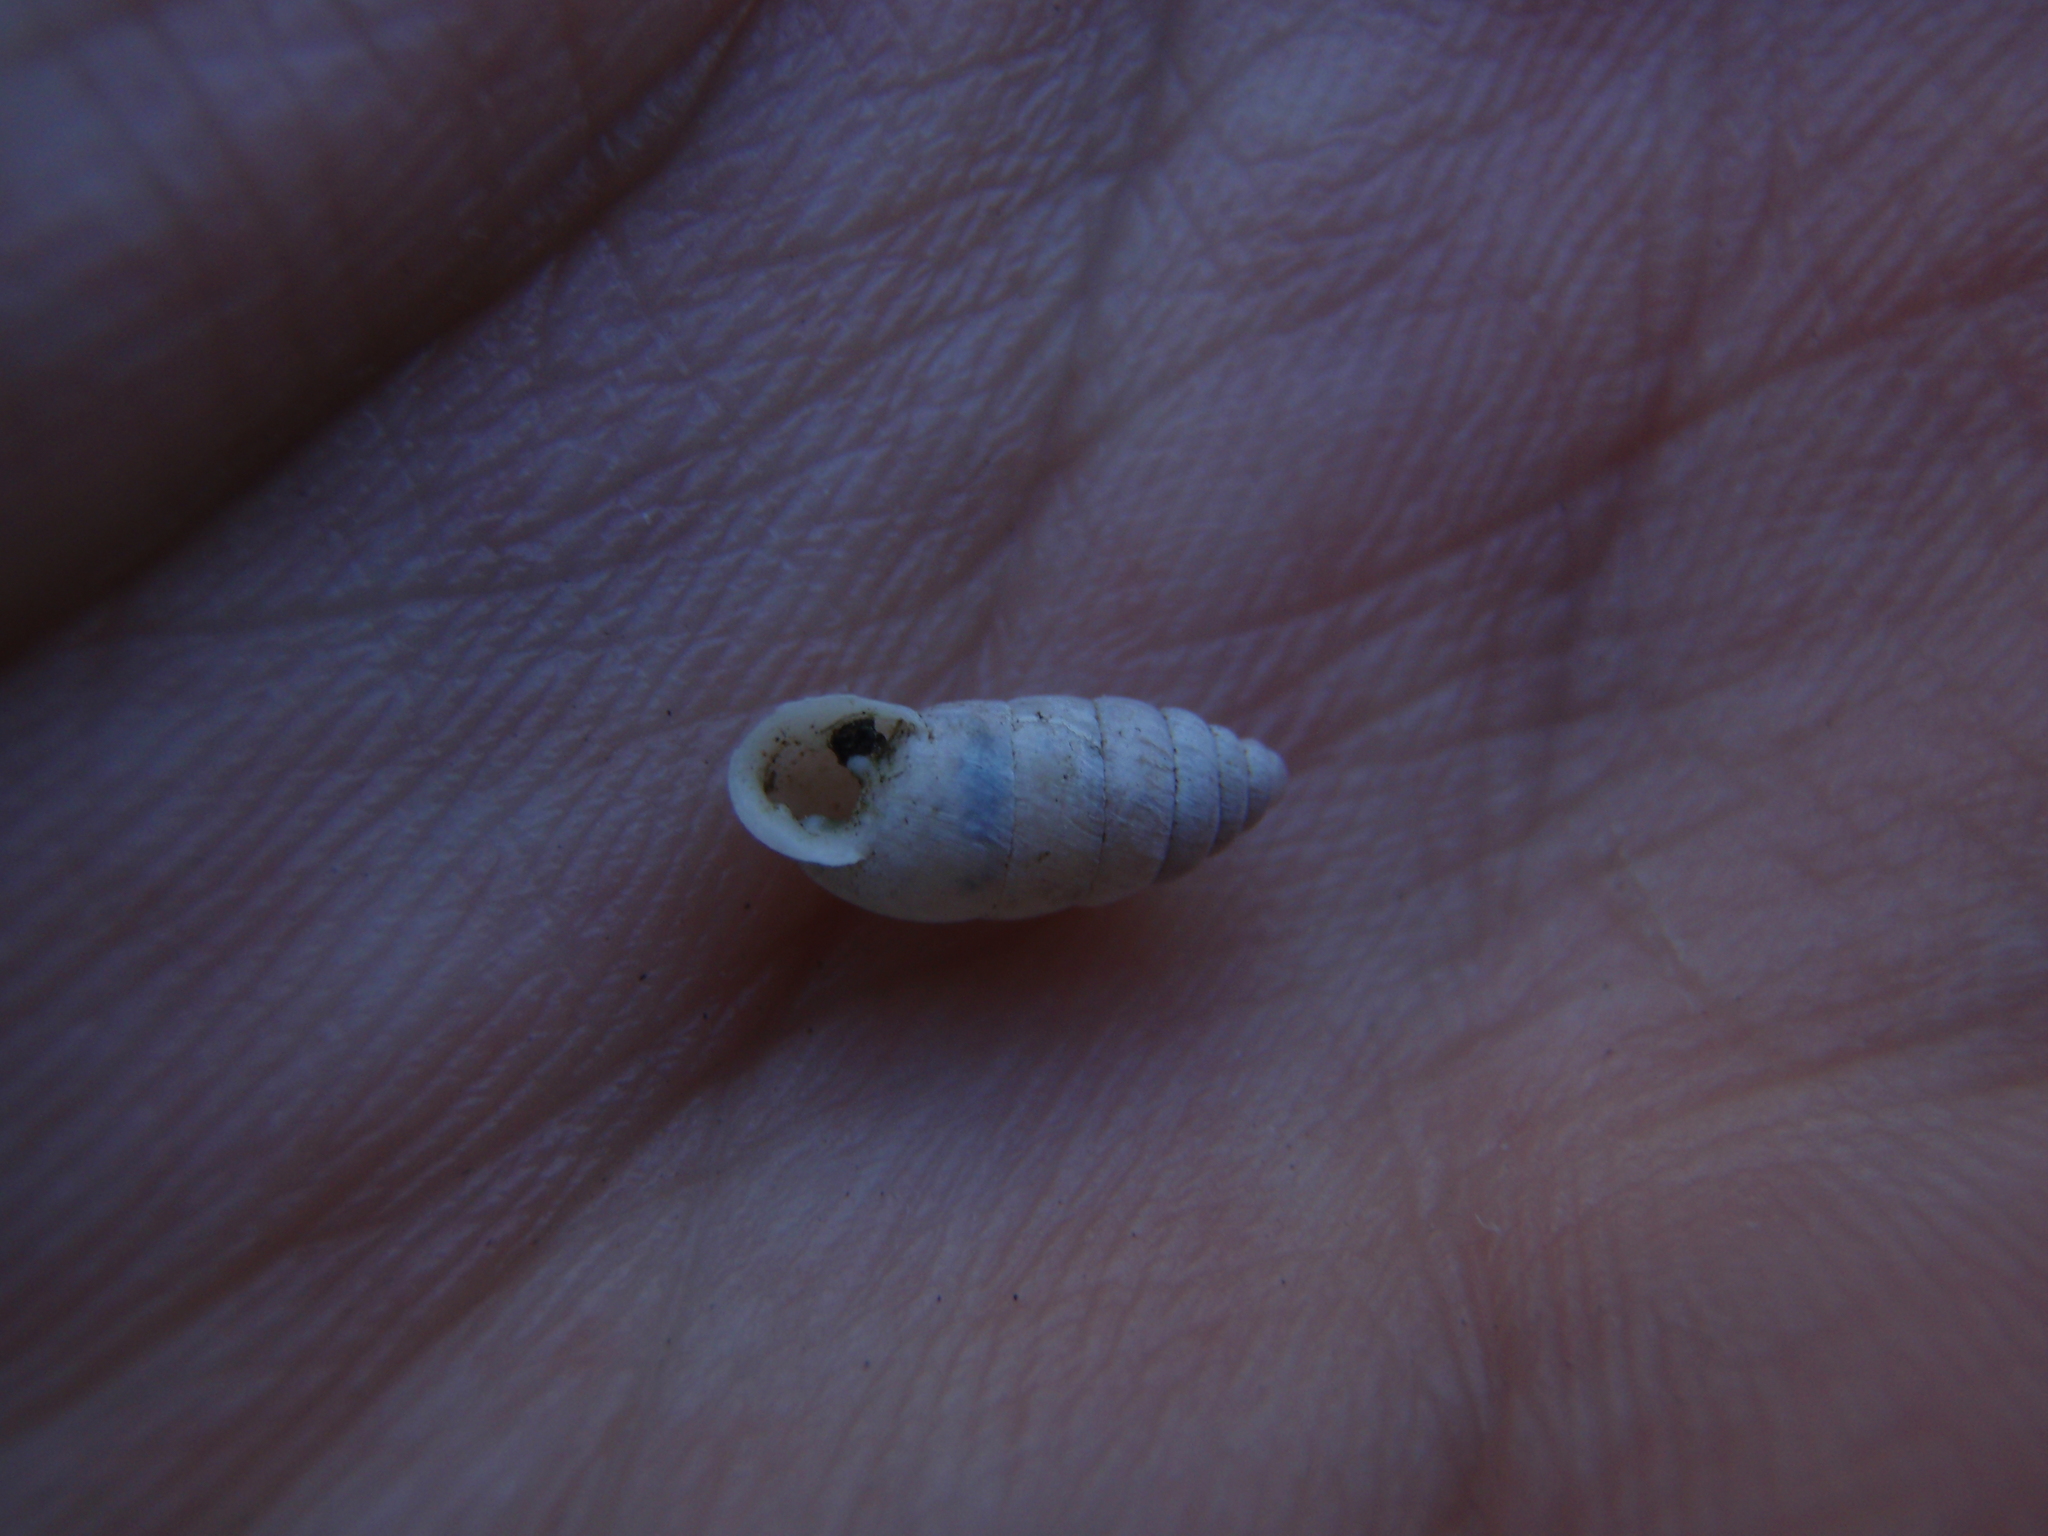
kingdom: Animalia
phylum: Mollusca
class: Gastropoda
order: Stylommatophora
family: Enidae
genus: Jaminia
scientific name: Jaminia quadridens
